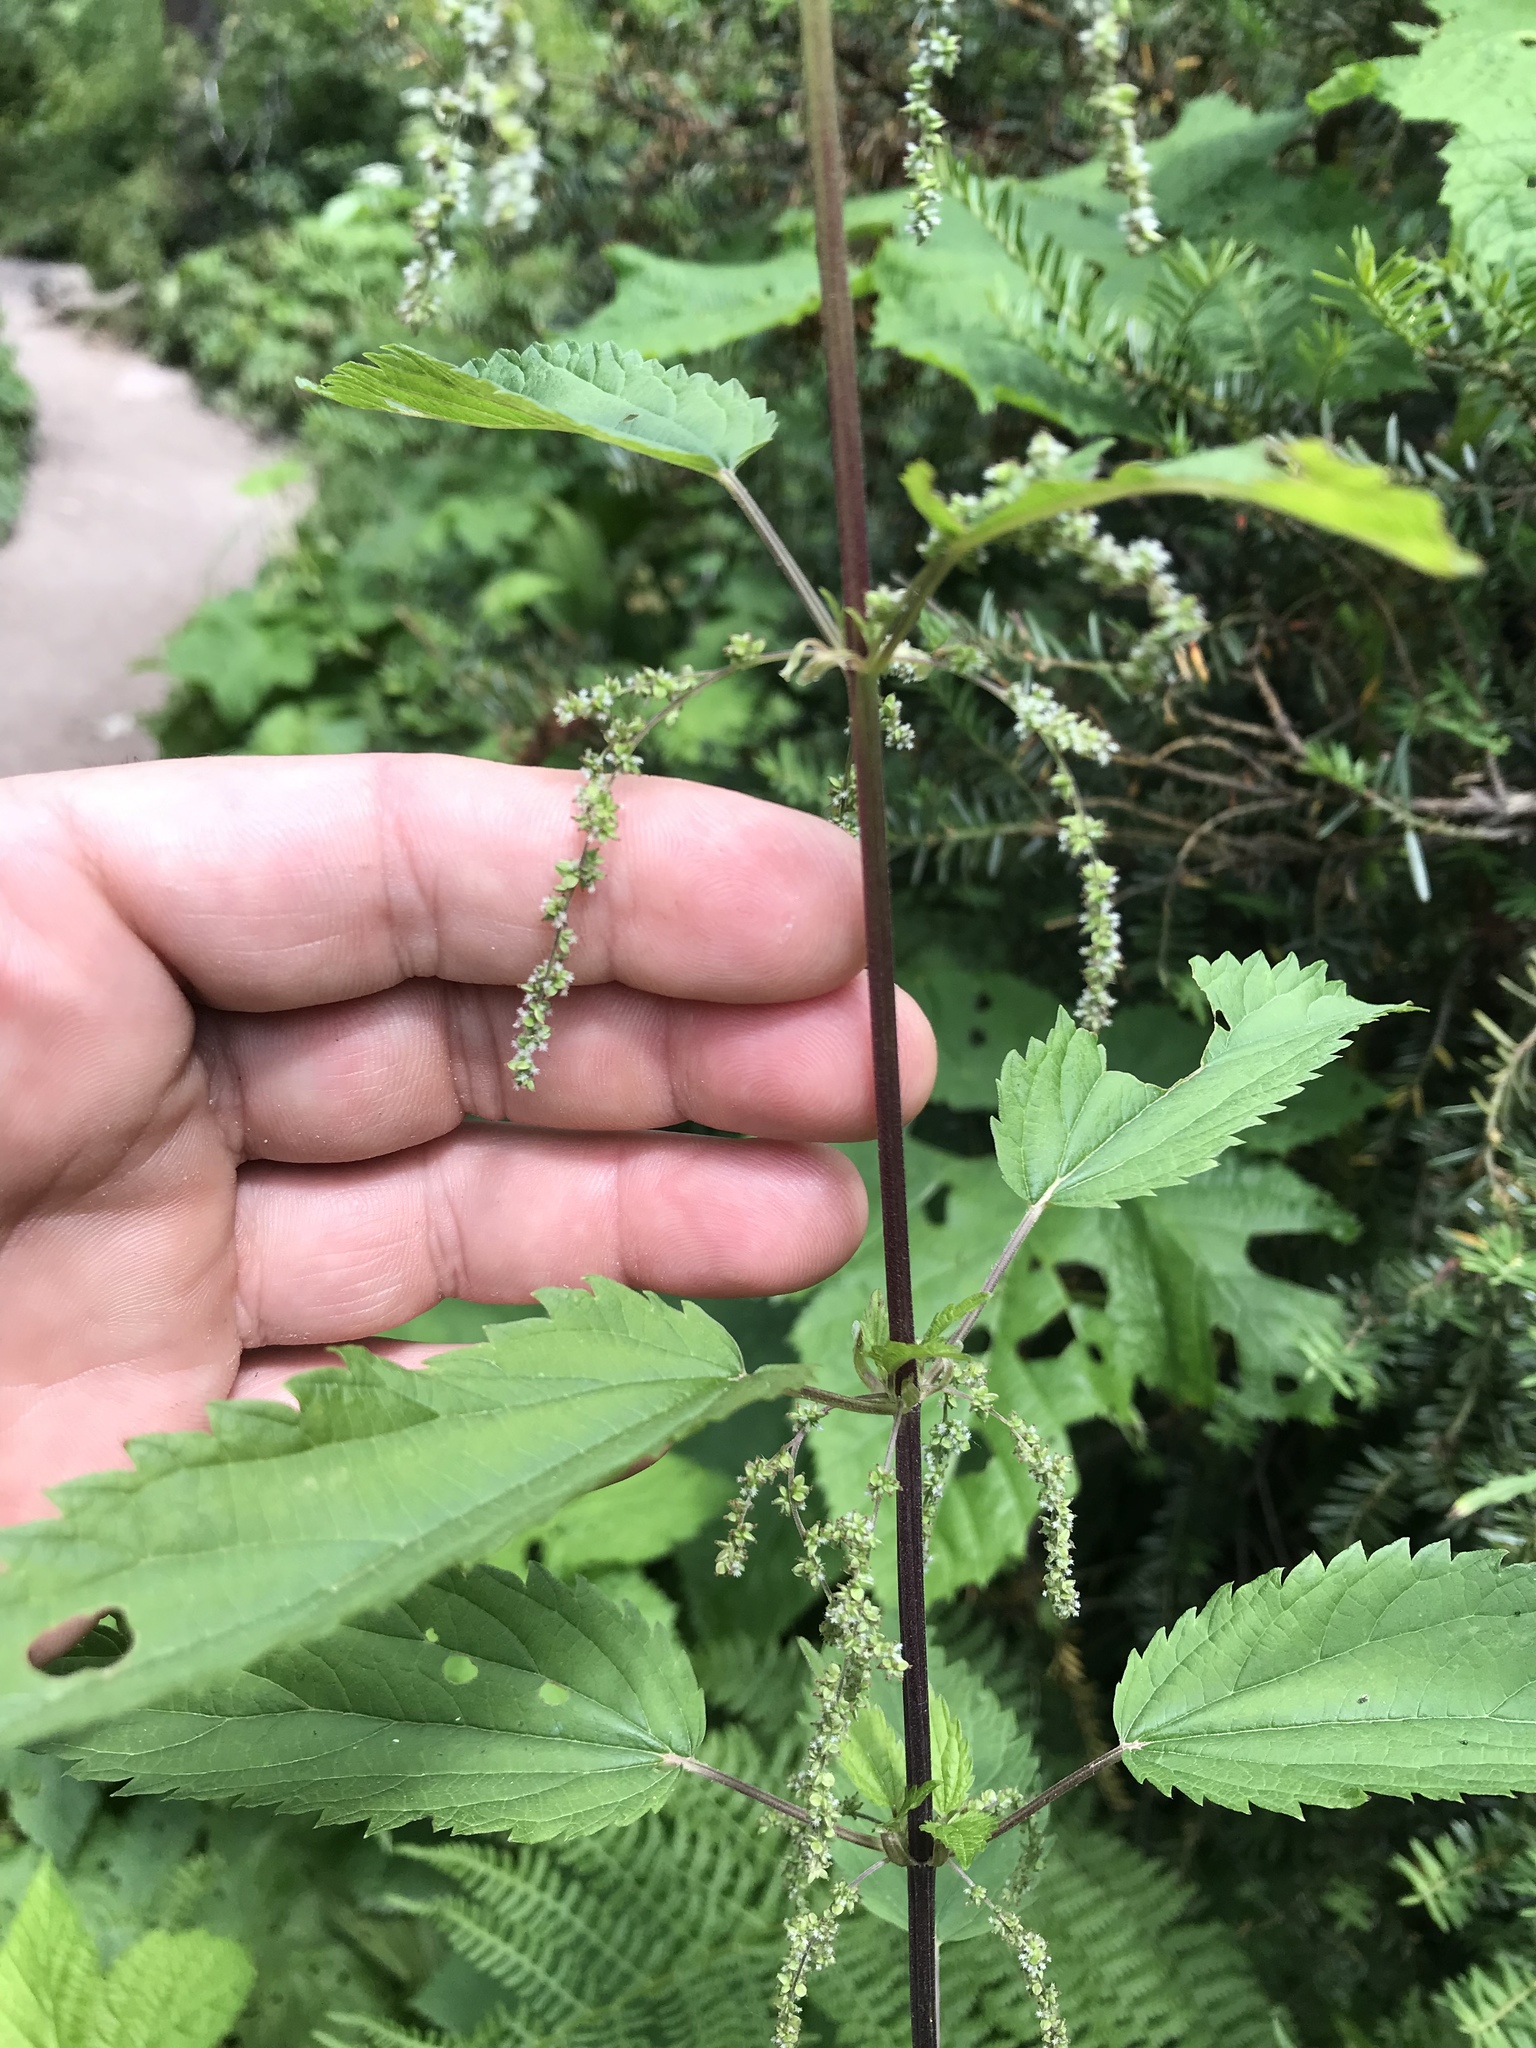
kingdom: Plantae
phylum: Tracheophyta
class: Magnoliopsida
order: Rosales
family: Urticaceae
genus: Urtica
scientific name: Urtica gracilis
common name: Slender stinging nettle
